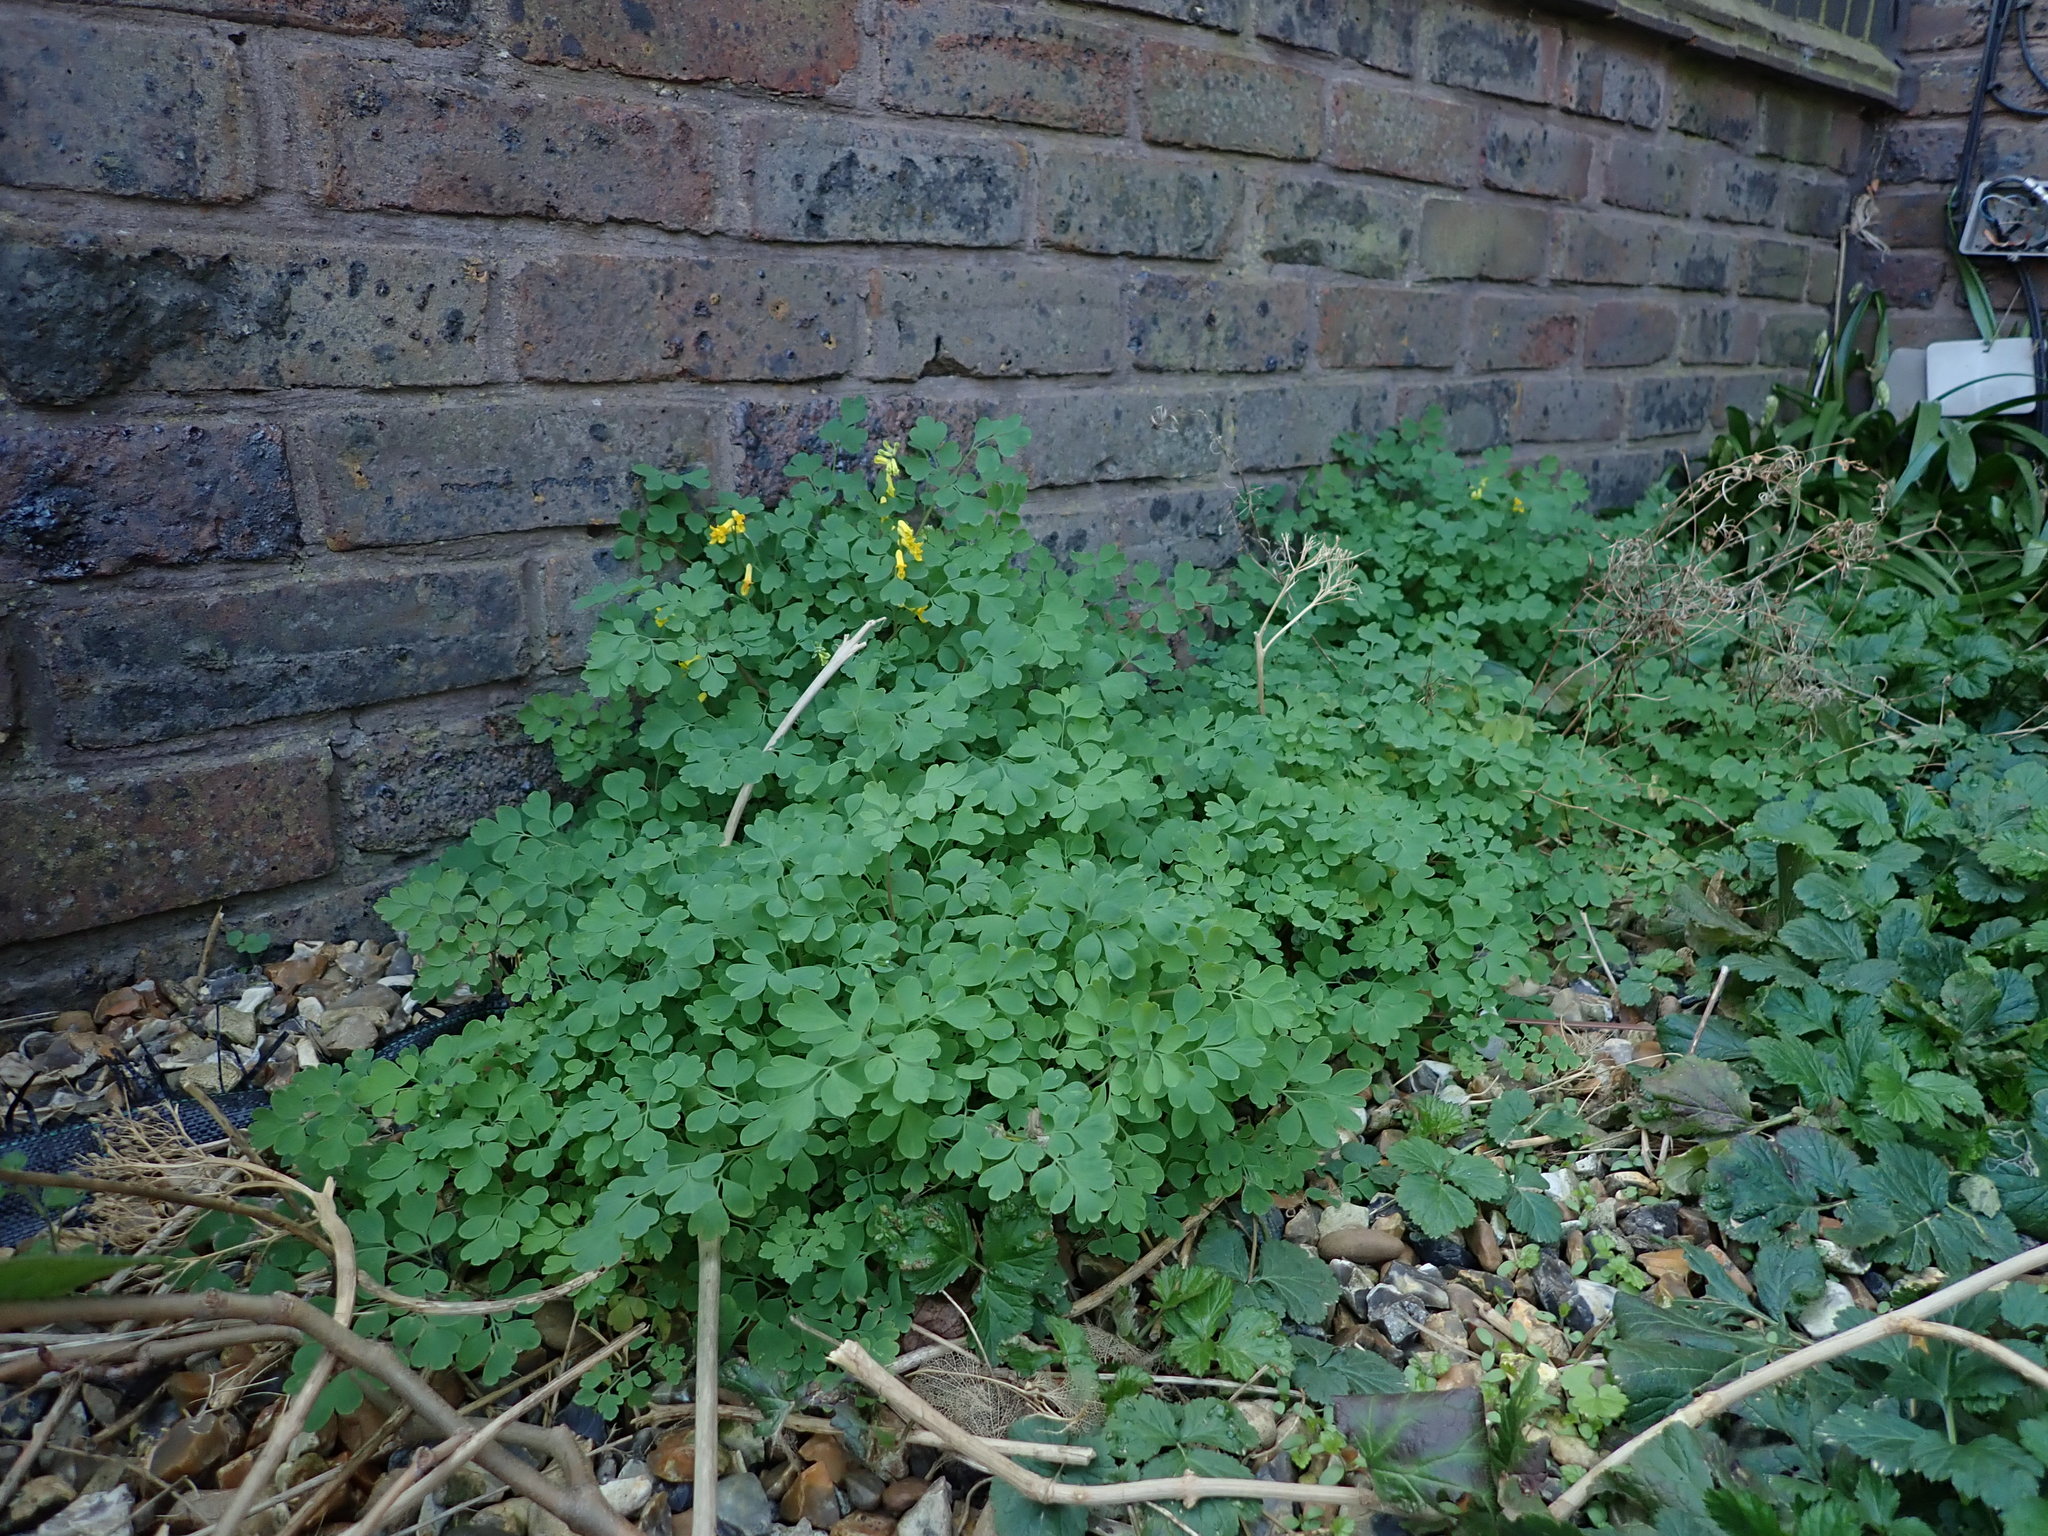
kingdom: Plantae
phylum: Tracheophyta
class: Magnoliopsida
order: Ranunculales
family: Papaveraceae
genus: Pseudofumaria
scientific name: Pseudofumaria lutea
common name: Yellow corydalis
